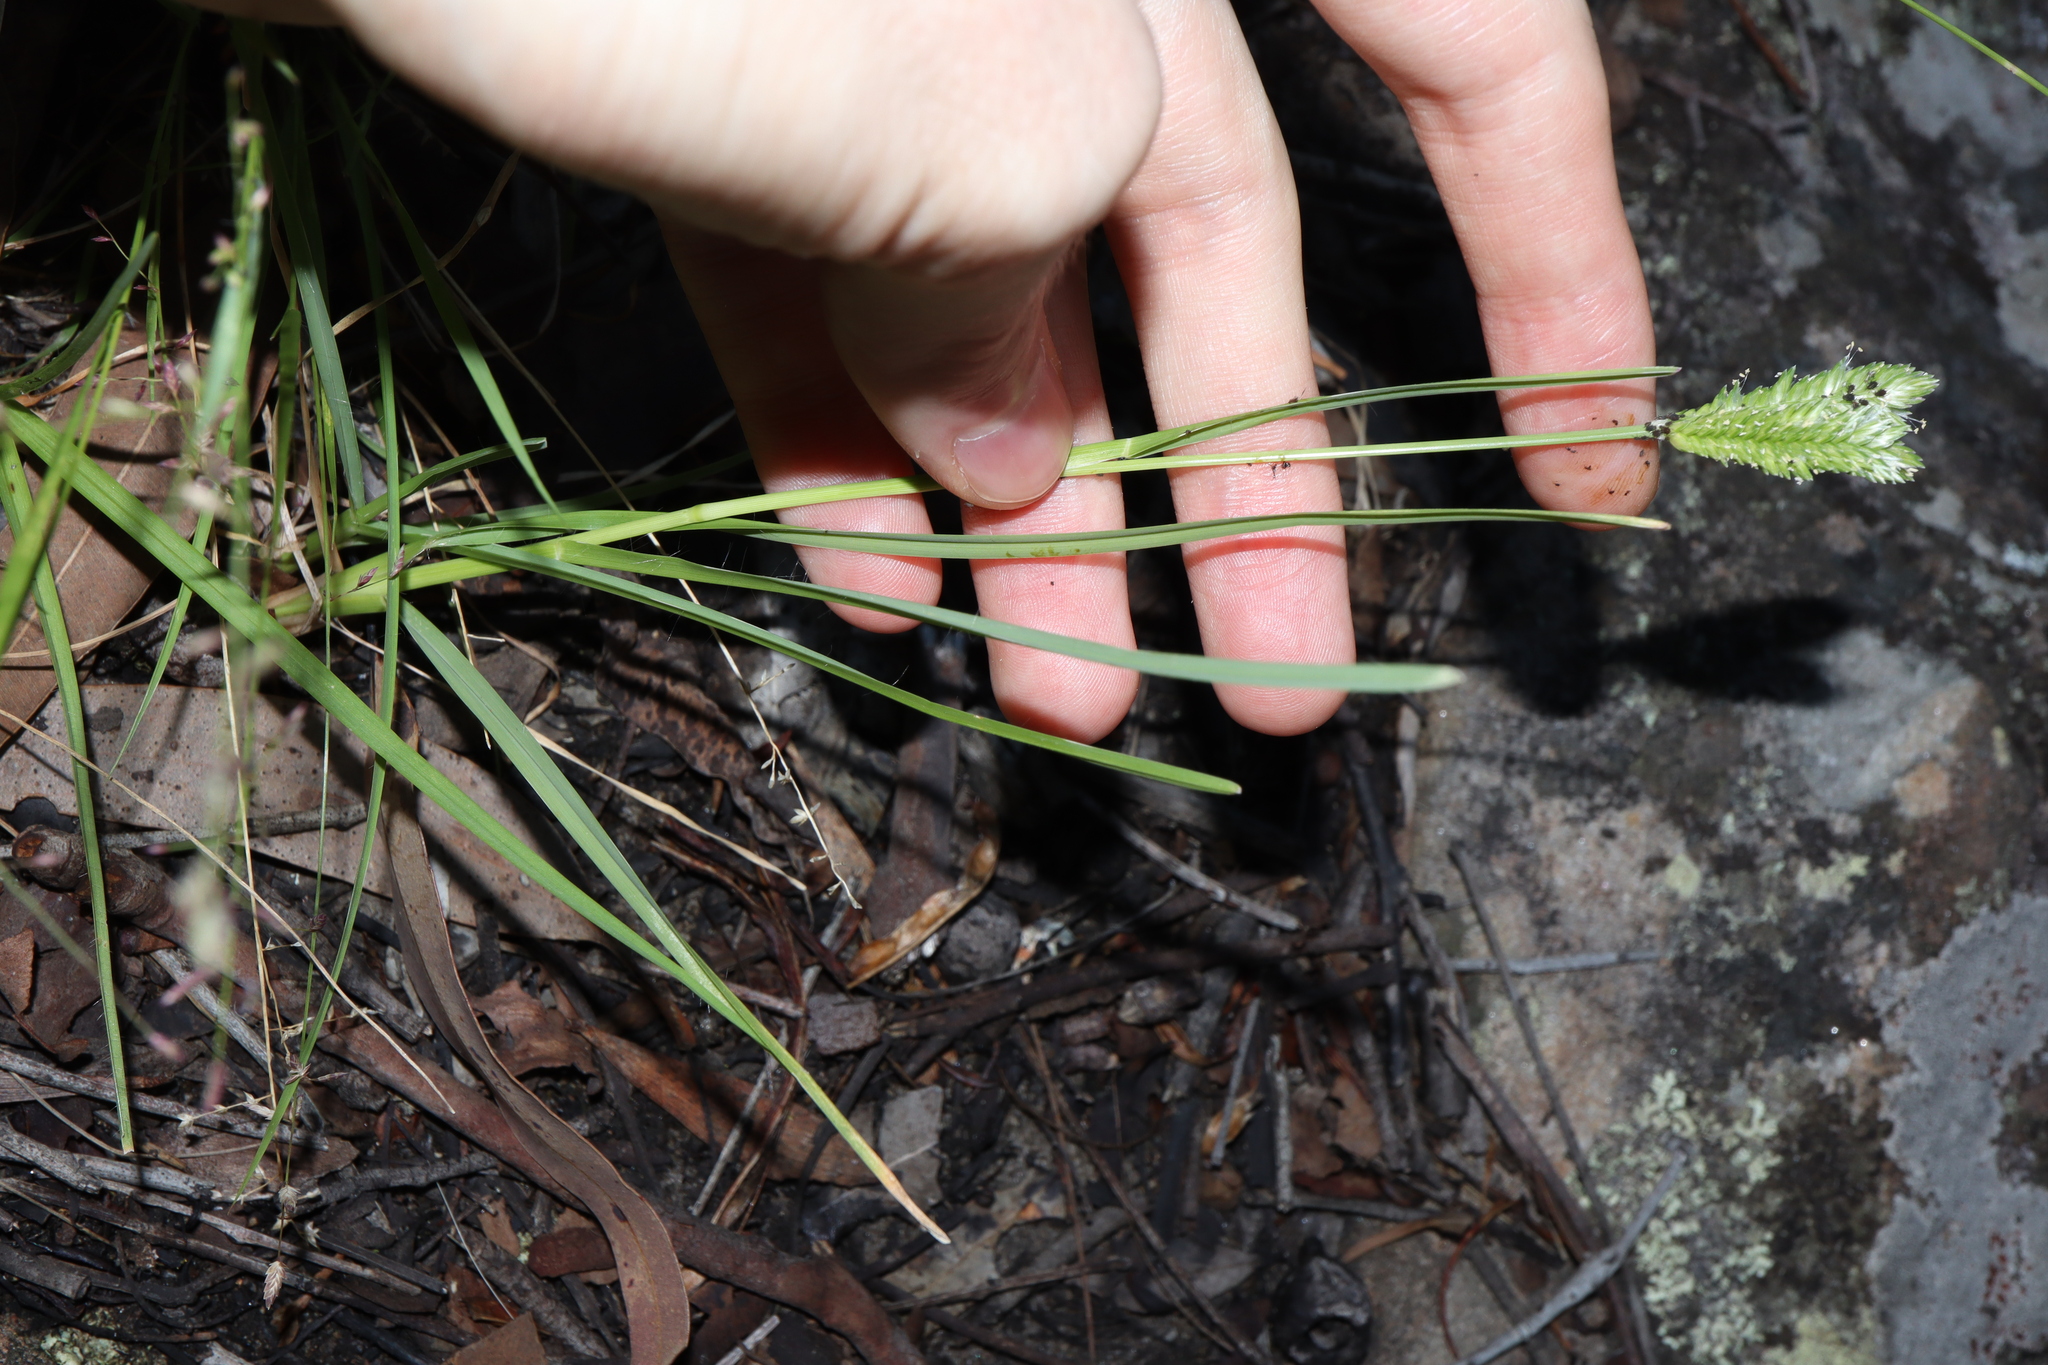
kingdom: Plantae
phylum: Tracheophyta
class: Liliopsida
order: Poales
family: Poaceae
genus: Eleusine
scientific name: Eleusine tristachya
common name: American yard-grass
